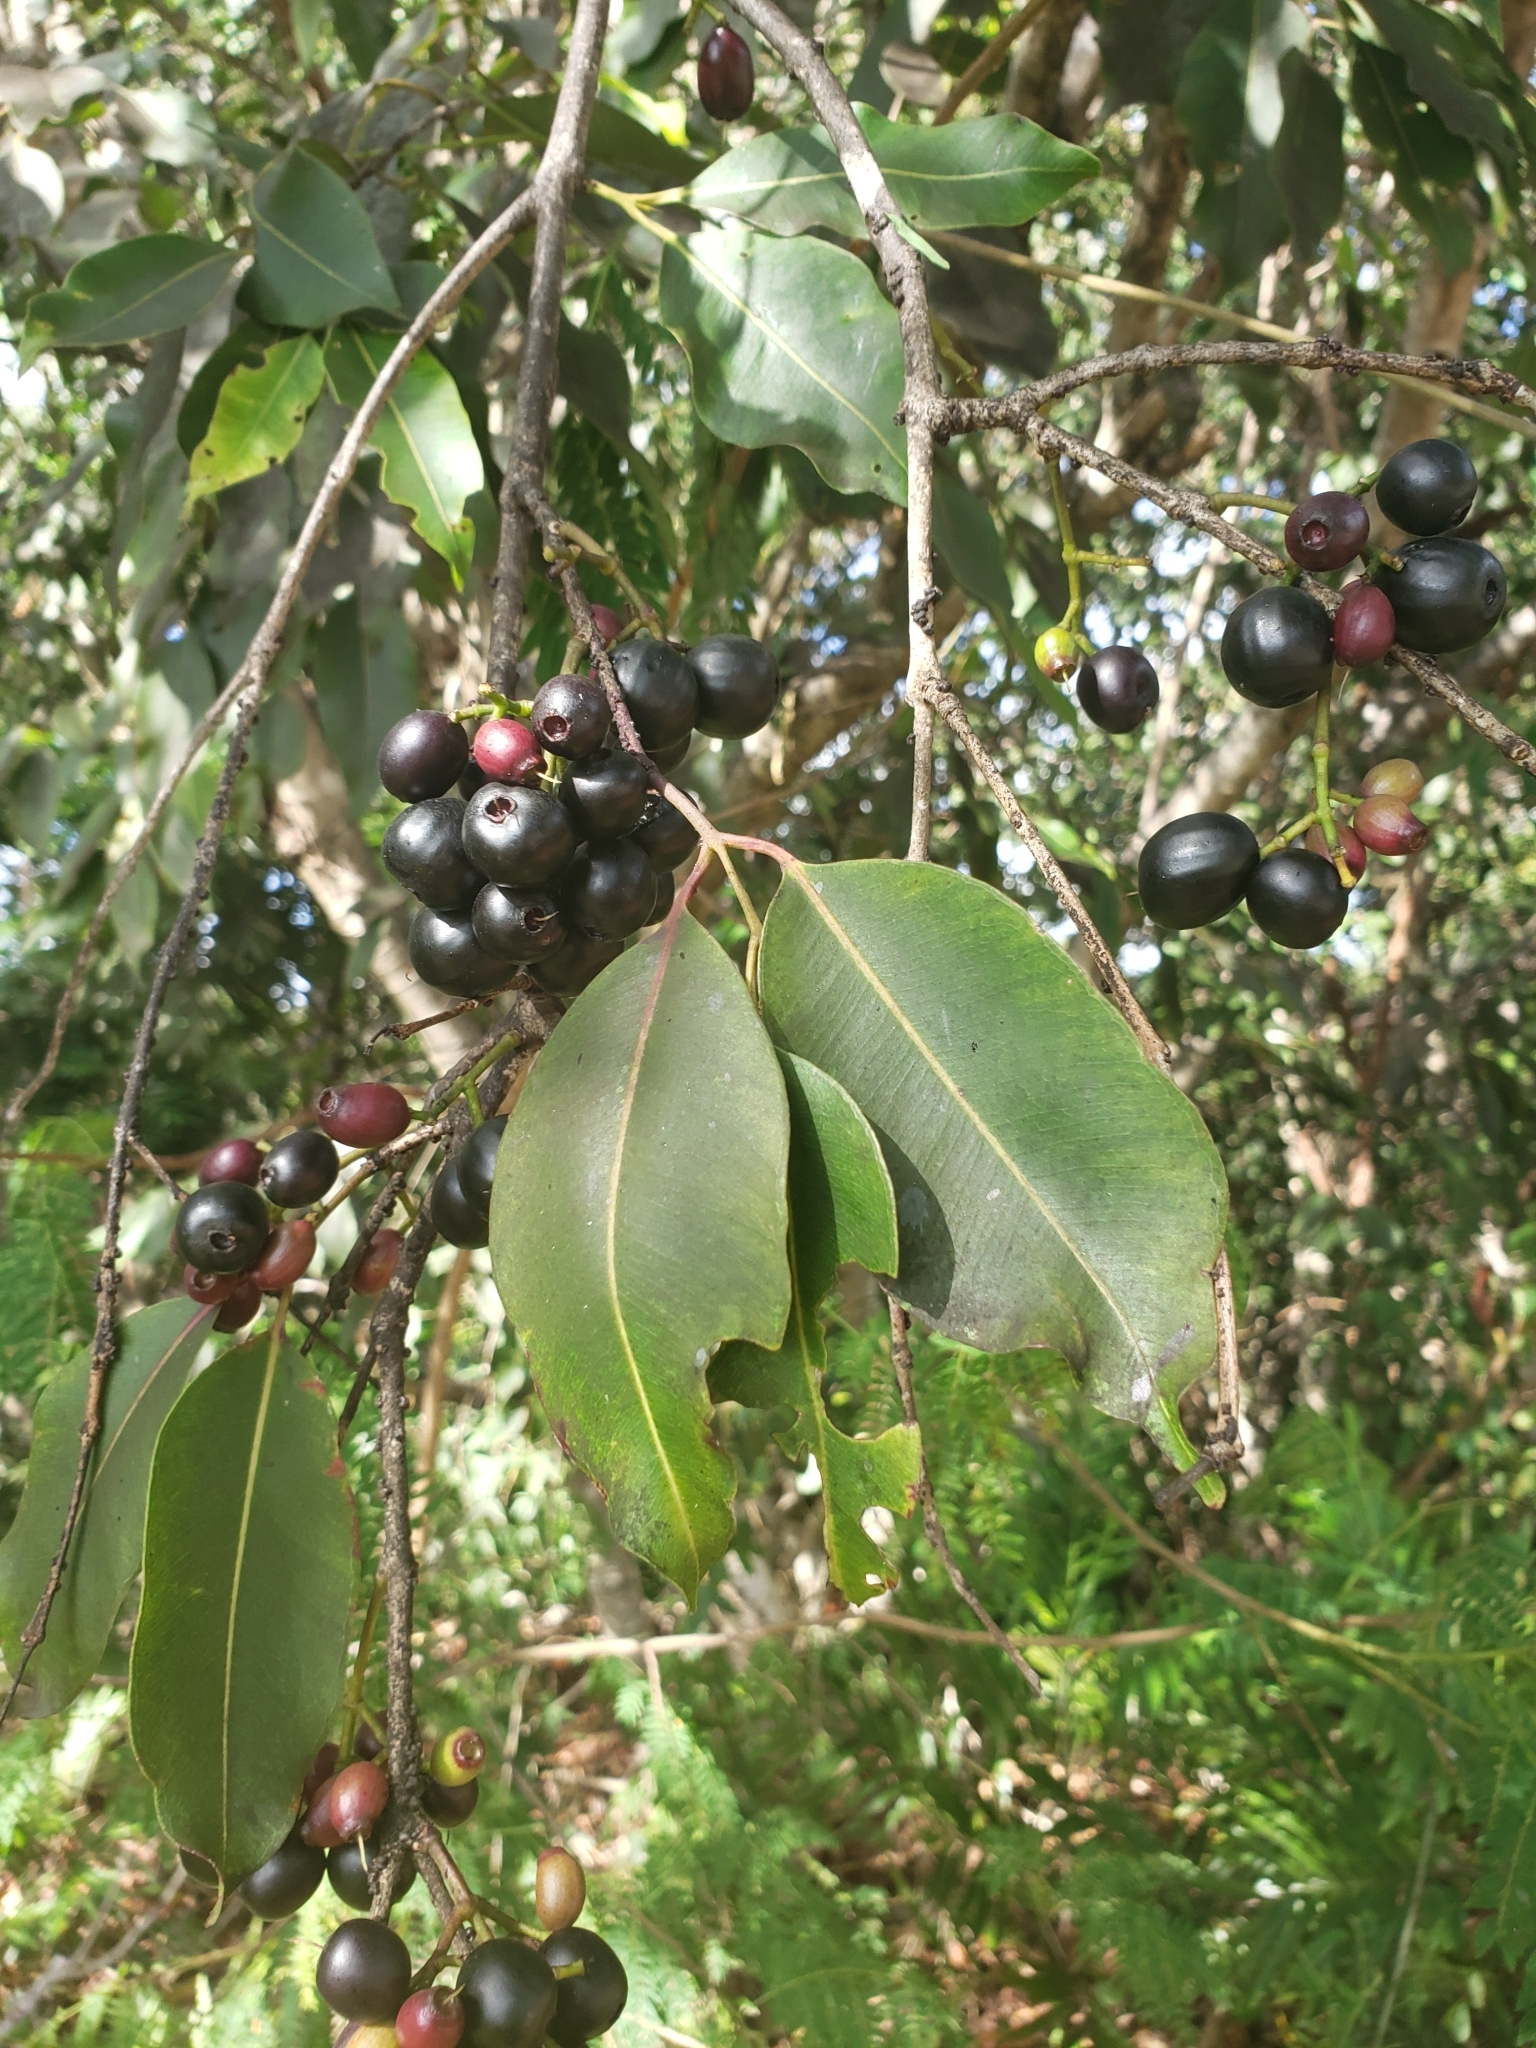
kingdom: Plantae
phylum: Tracheophyta
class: Magnoliopsida
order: Myrtales
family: Myrtaceae
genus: Syzygium
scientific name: Syzygium cumini
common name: Java plum
